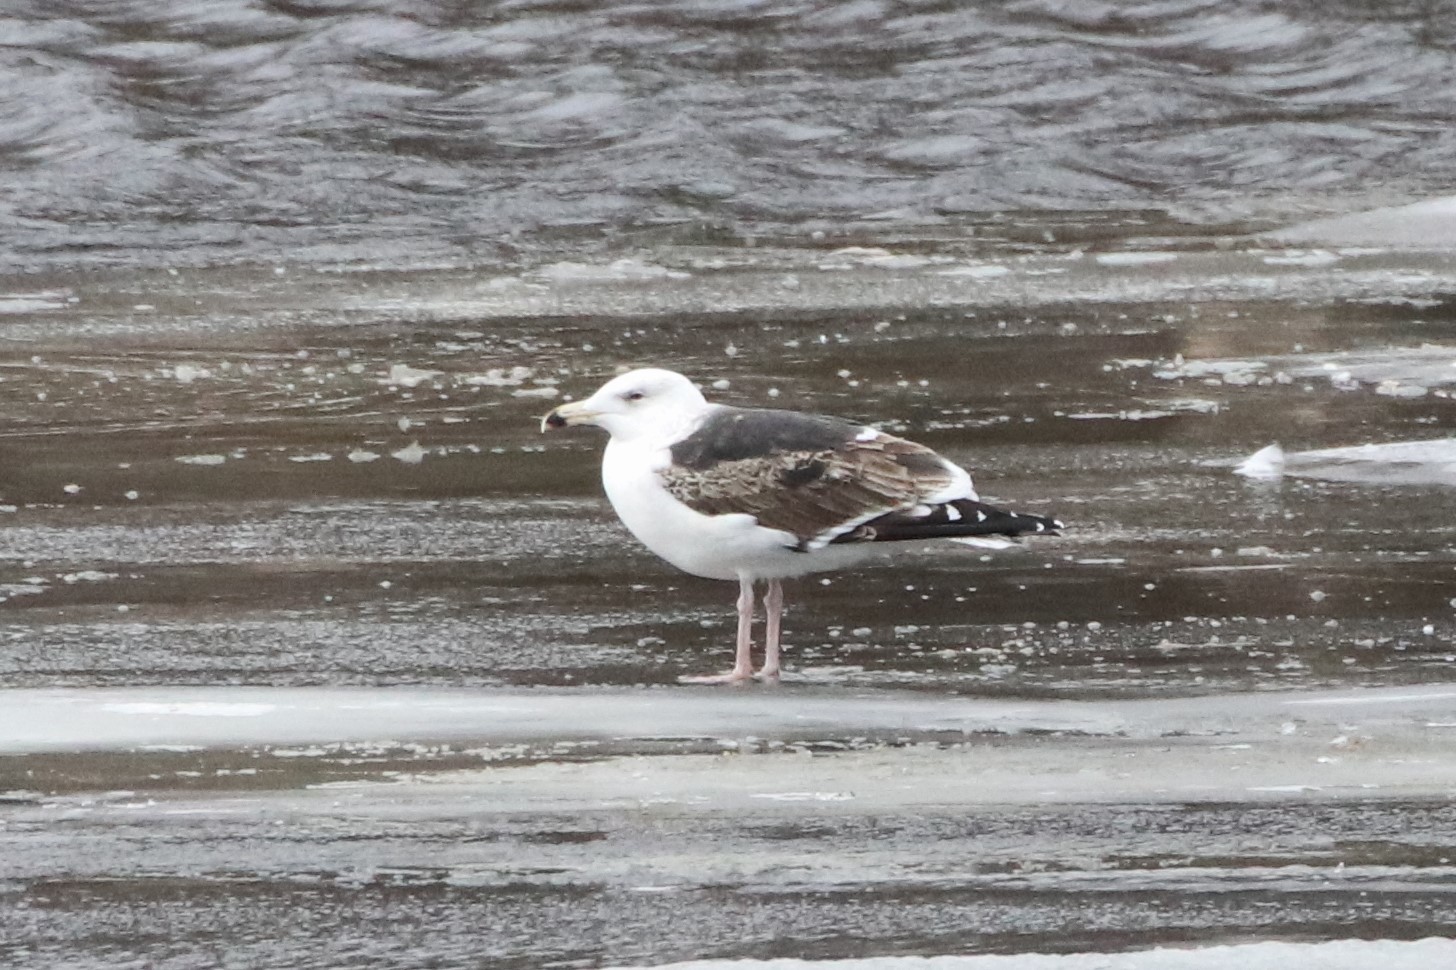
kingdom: Animalia
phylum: Chordata
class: Aves
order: Charadriiformes
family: Laridae
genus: Larus
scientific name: Larus marinus
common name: Great black-backed gull
